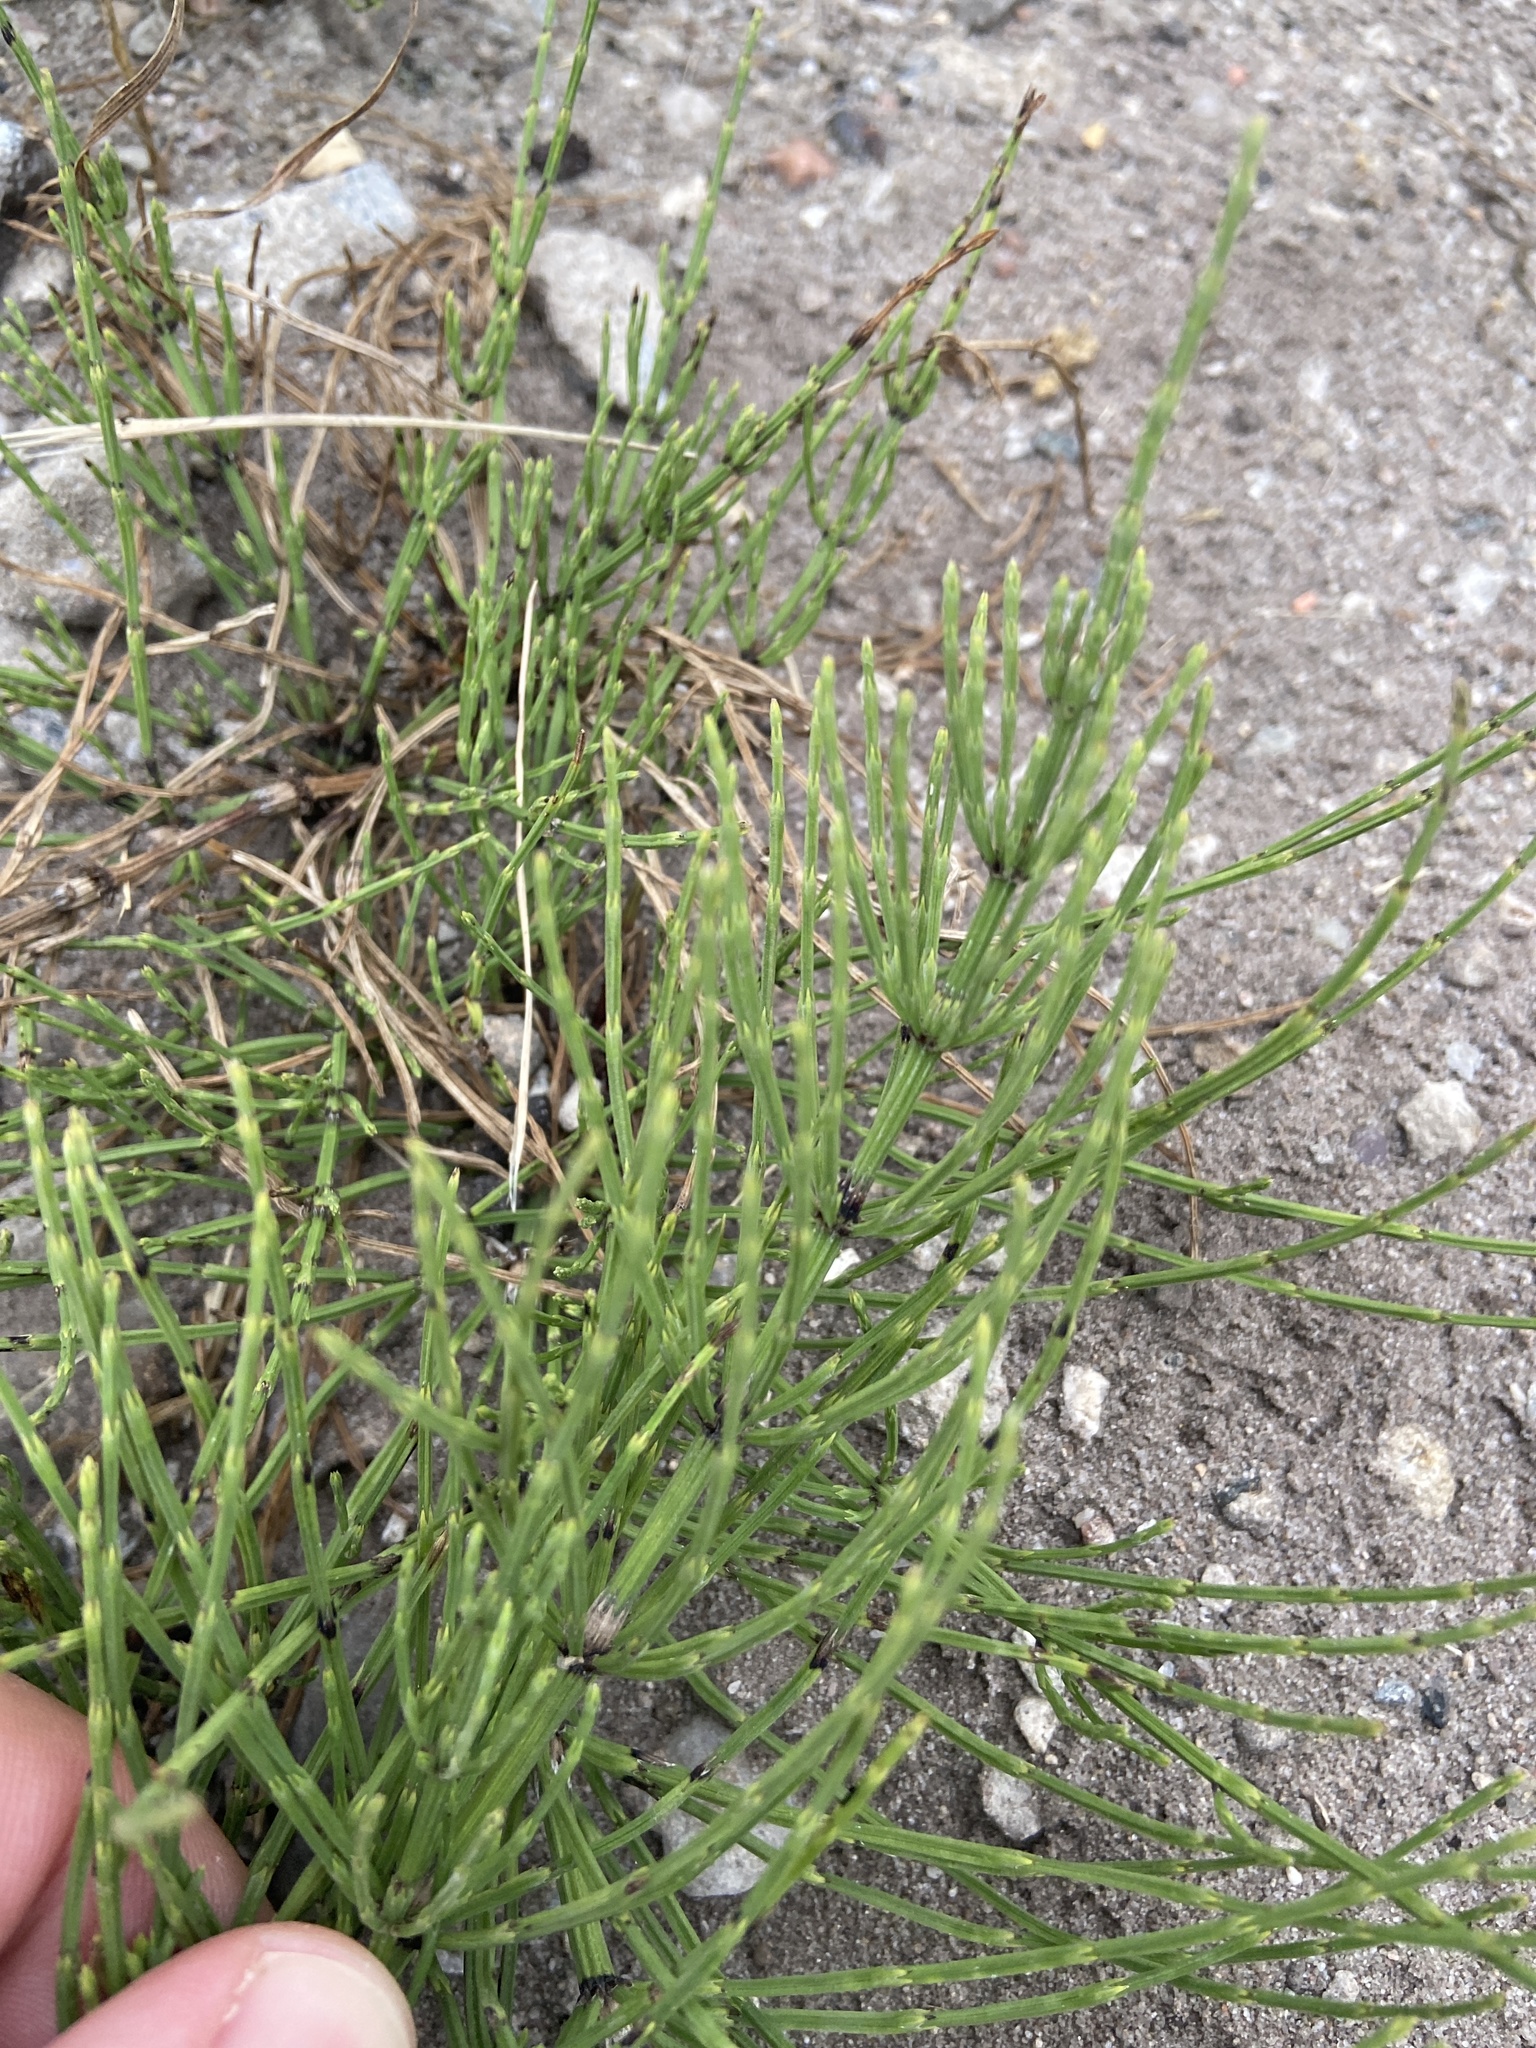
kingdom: Plantae
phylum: Tracheophyta
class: Polypodiopsida
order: Equisetales
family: Equisetaceae
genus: Equisetum
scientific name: Equisetum arvense
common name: Field horsetail
